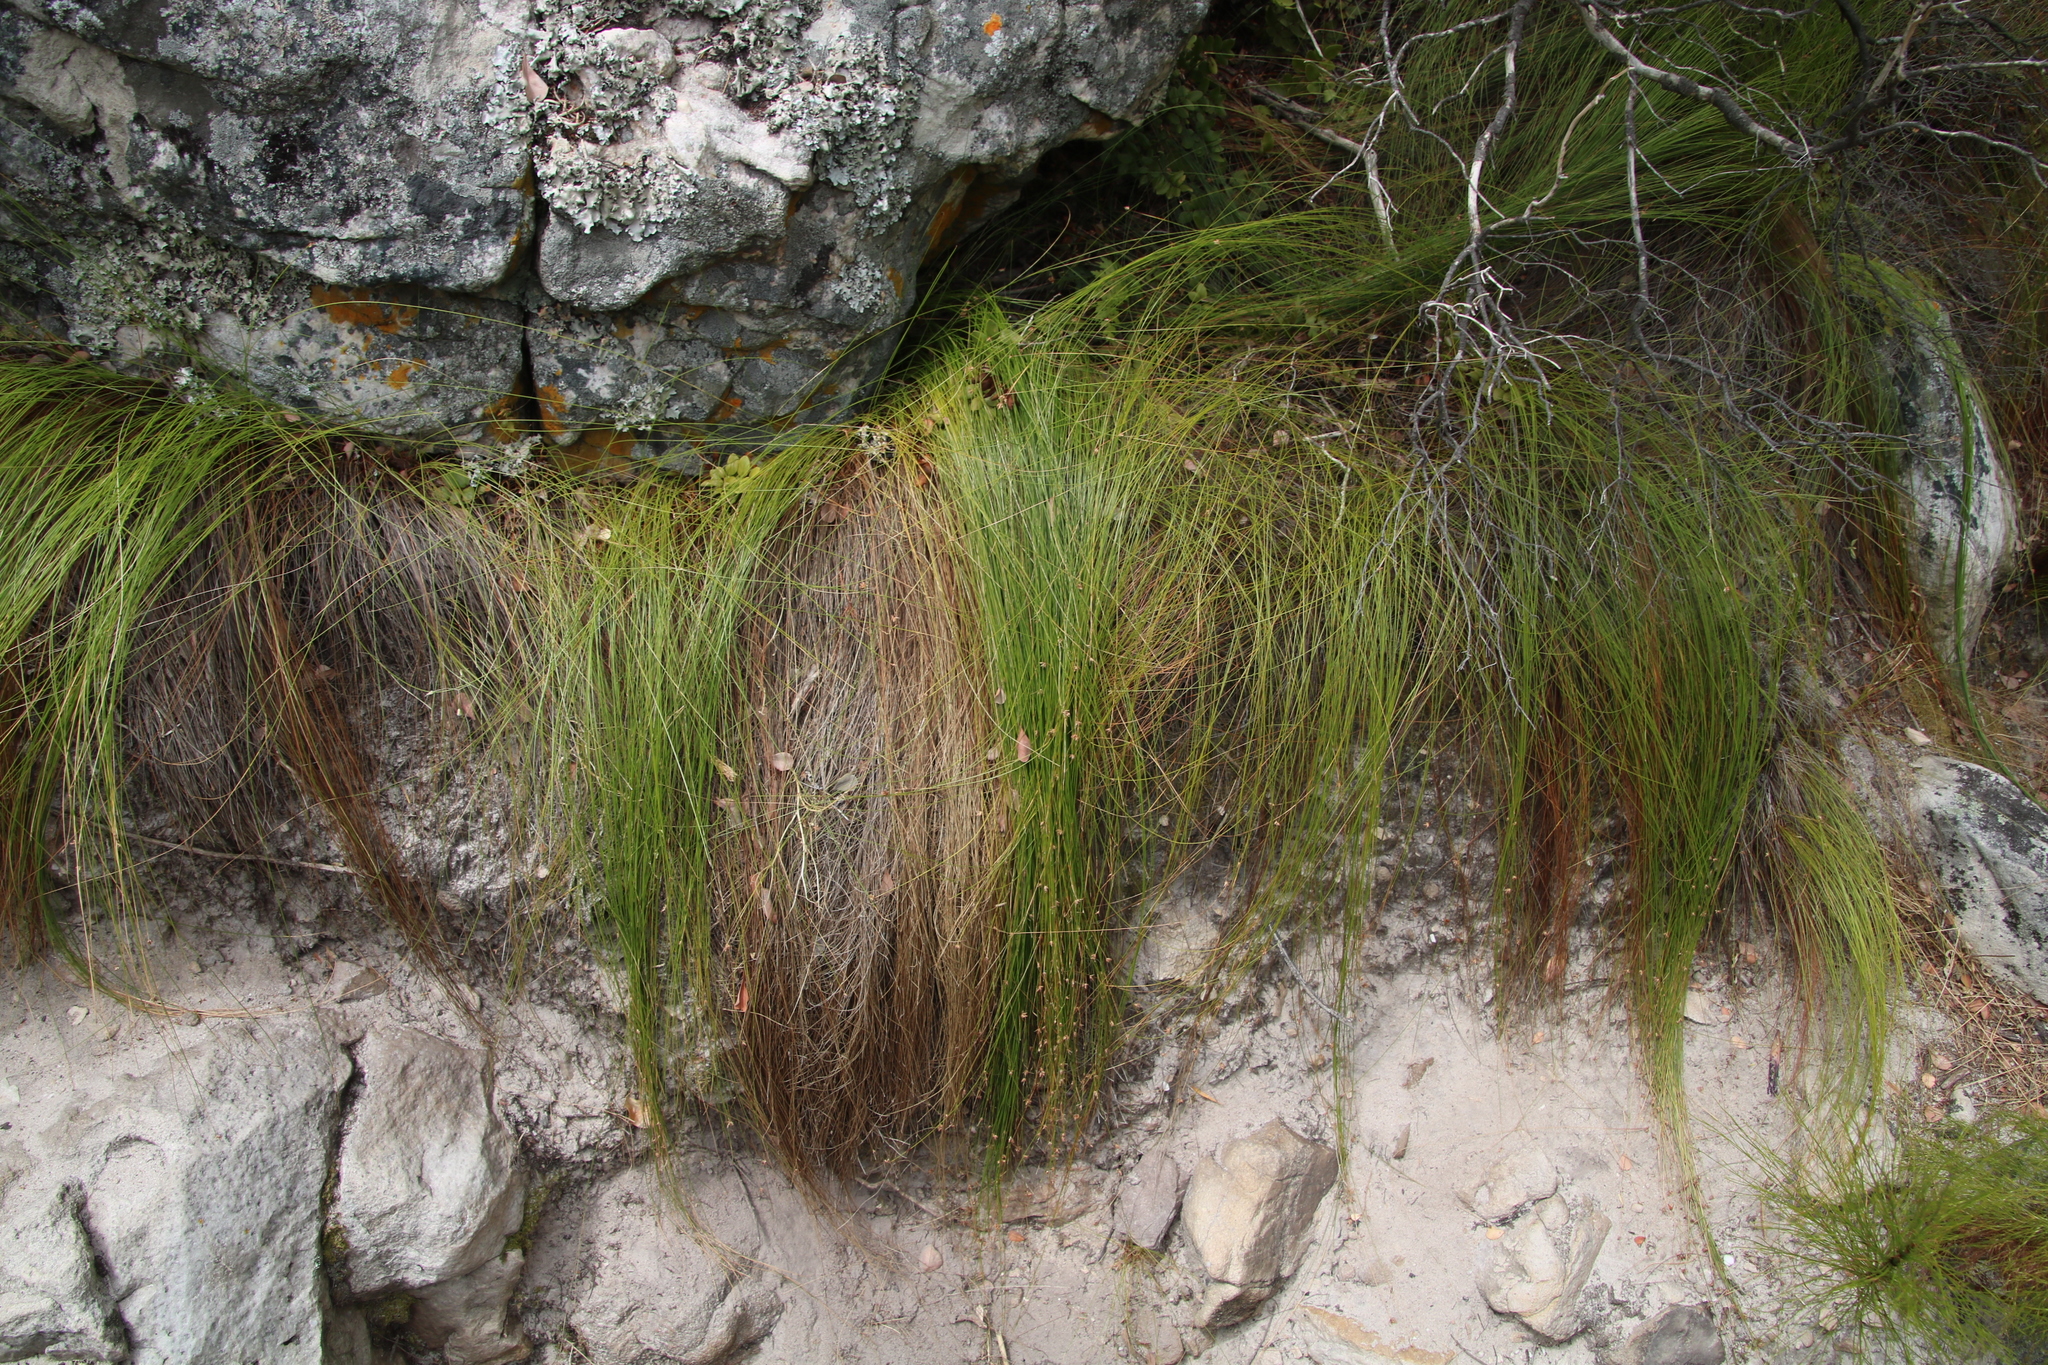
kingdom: Plantae
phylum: Tracheophyta
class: Liliopsida
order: Poales
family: Cyperaceae
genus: Ficinia
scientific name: Ficinia acuminata
